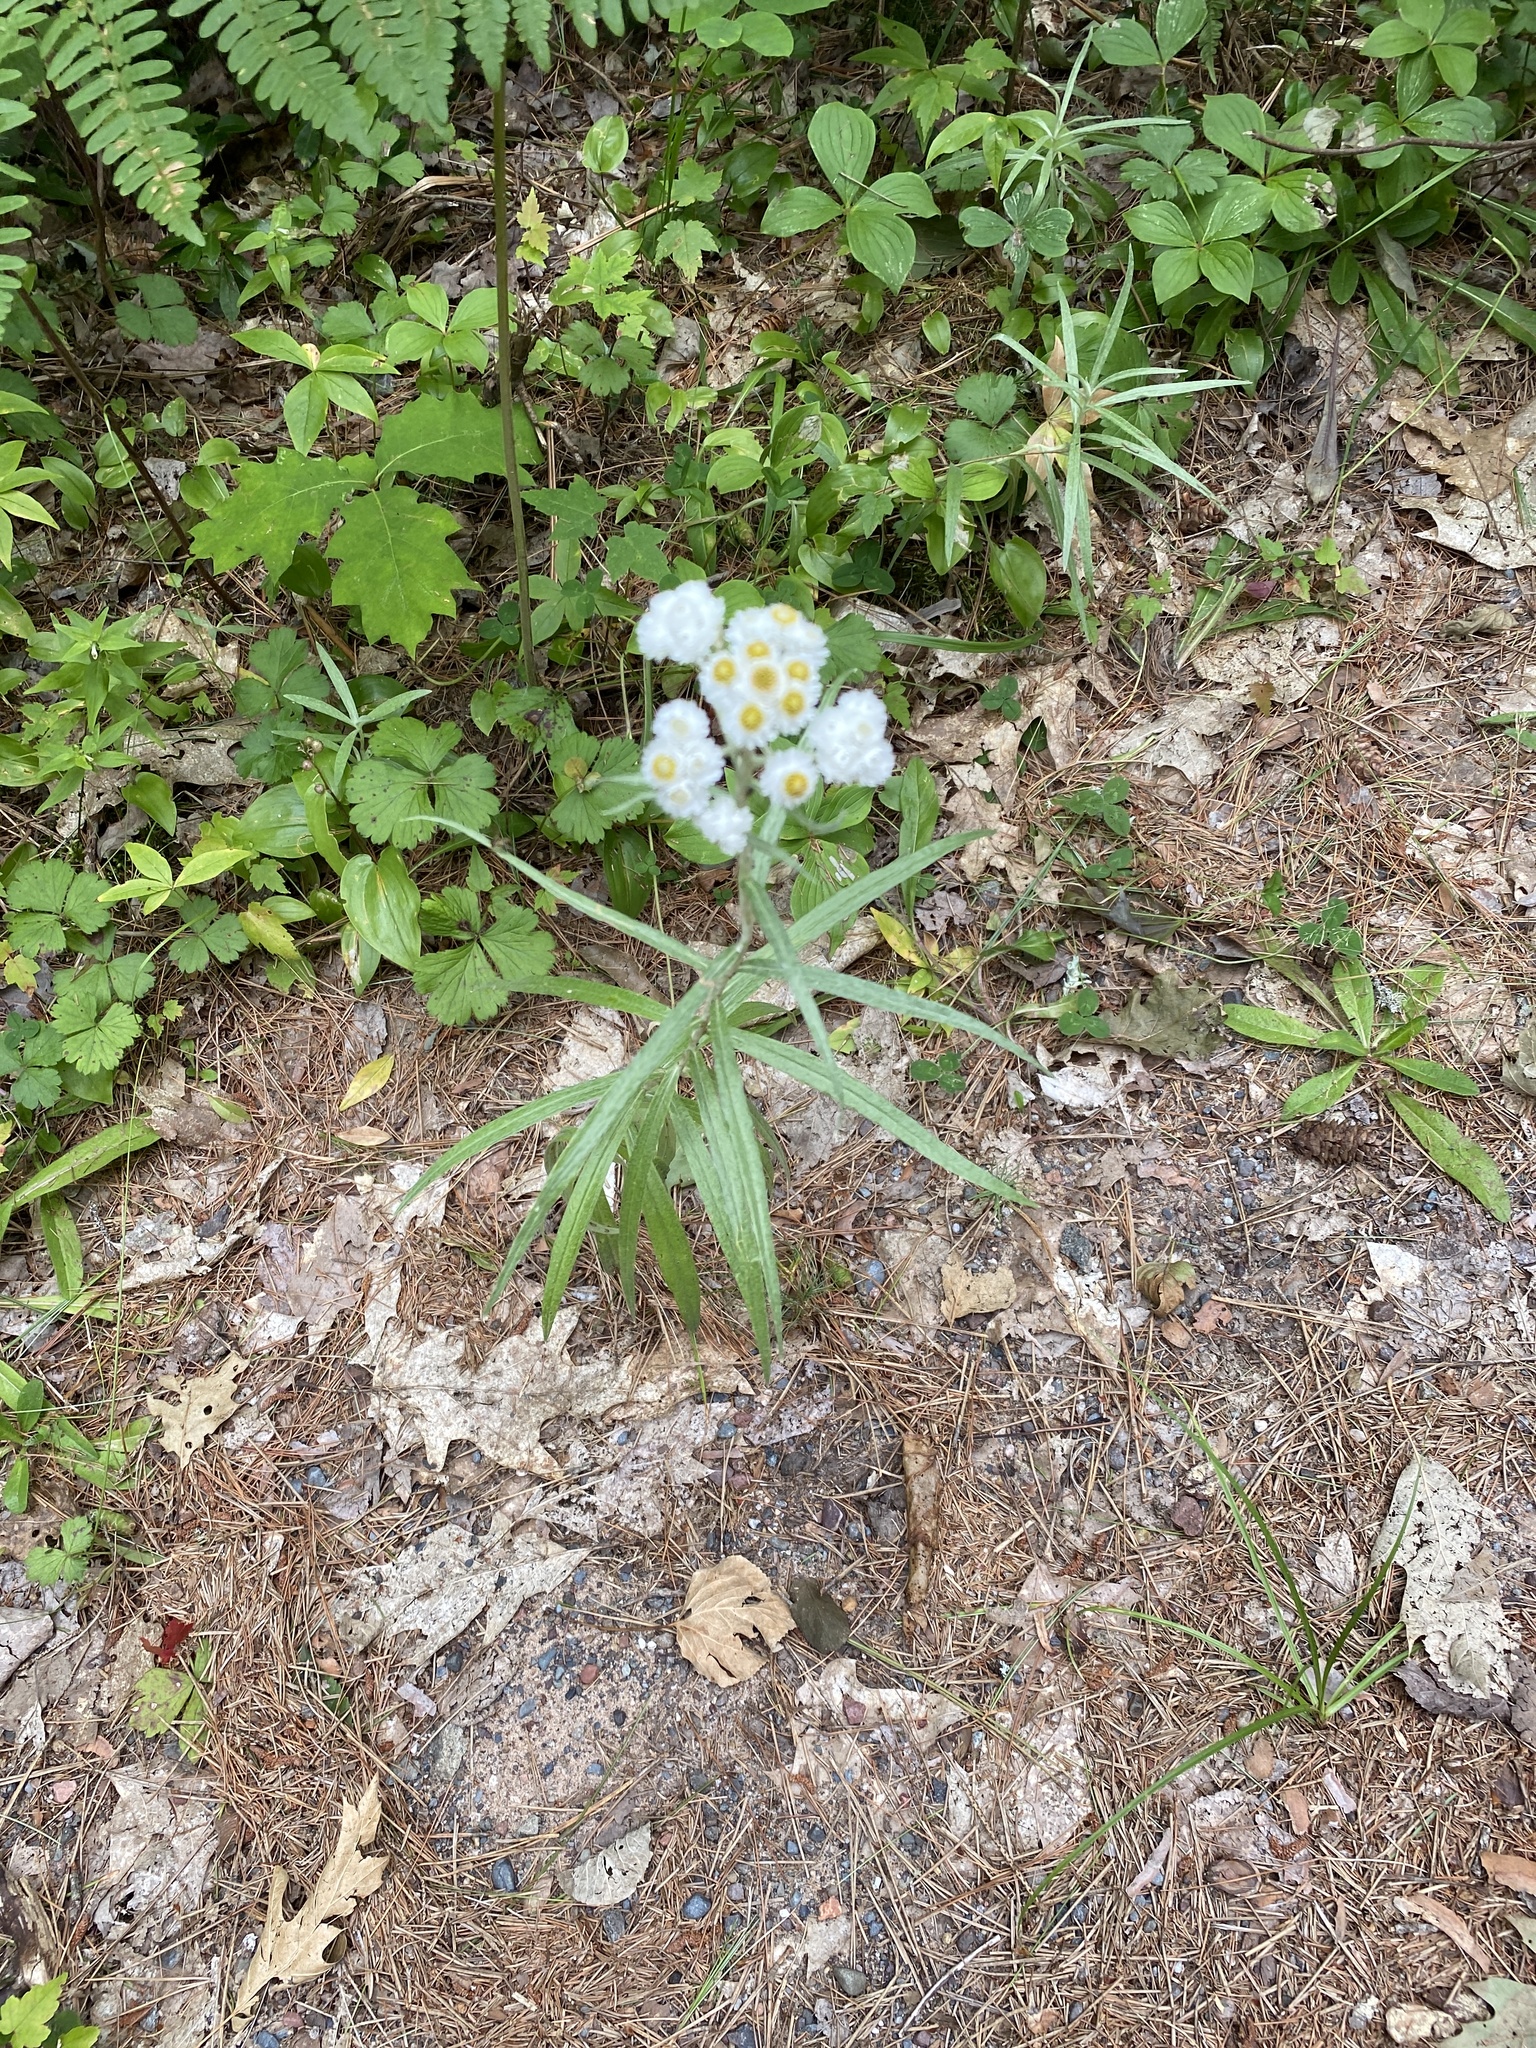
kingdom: Plantae
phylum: Tracheophyta
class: Magnoliopsida
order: Asterales
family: Asteraceae
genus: Anaphalis
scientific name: Anaphalis margaritacea
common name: Pearly everlasting
